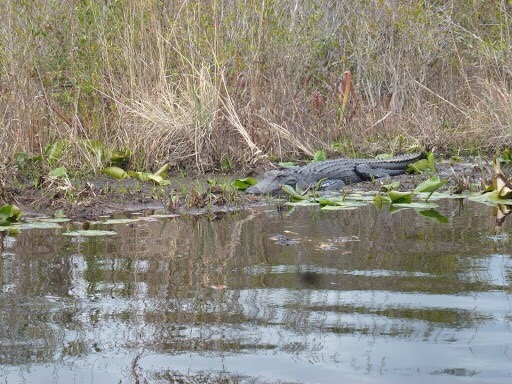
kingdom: Animalia
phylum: Chordata
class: Crocodylia
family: Alligatoridae
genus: Alligator
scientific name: Alligator mississippiensis
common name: American alligator
